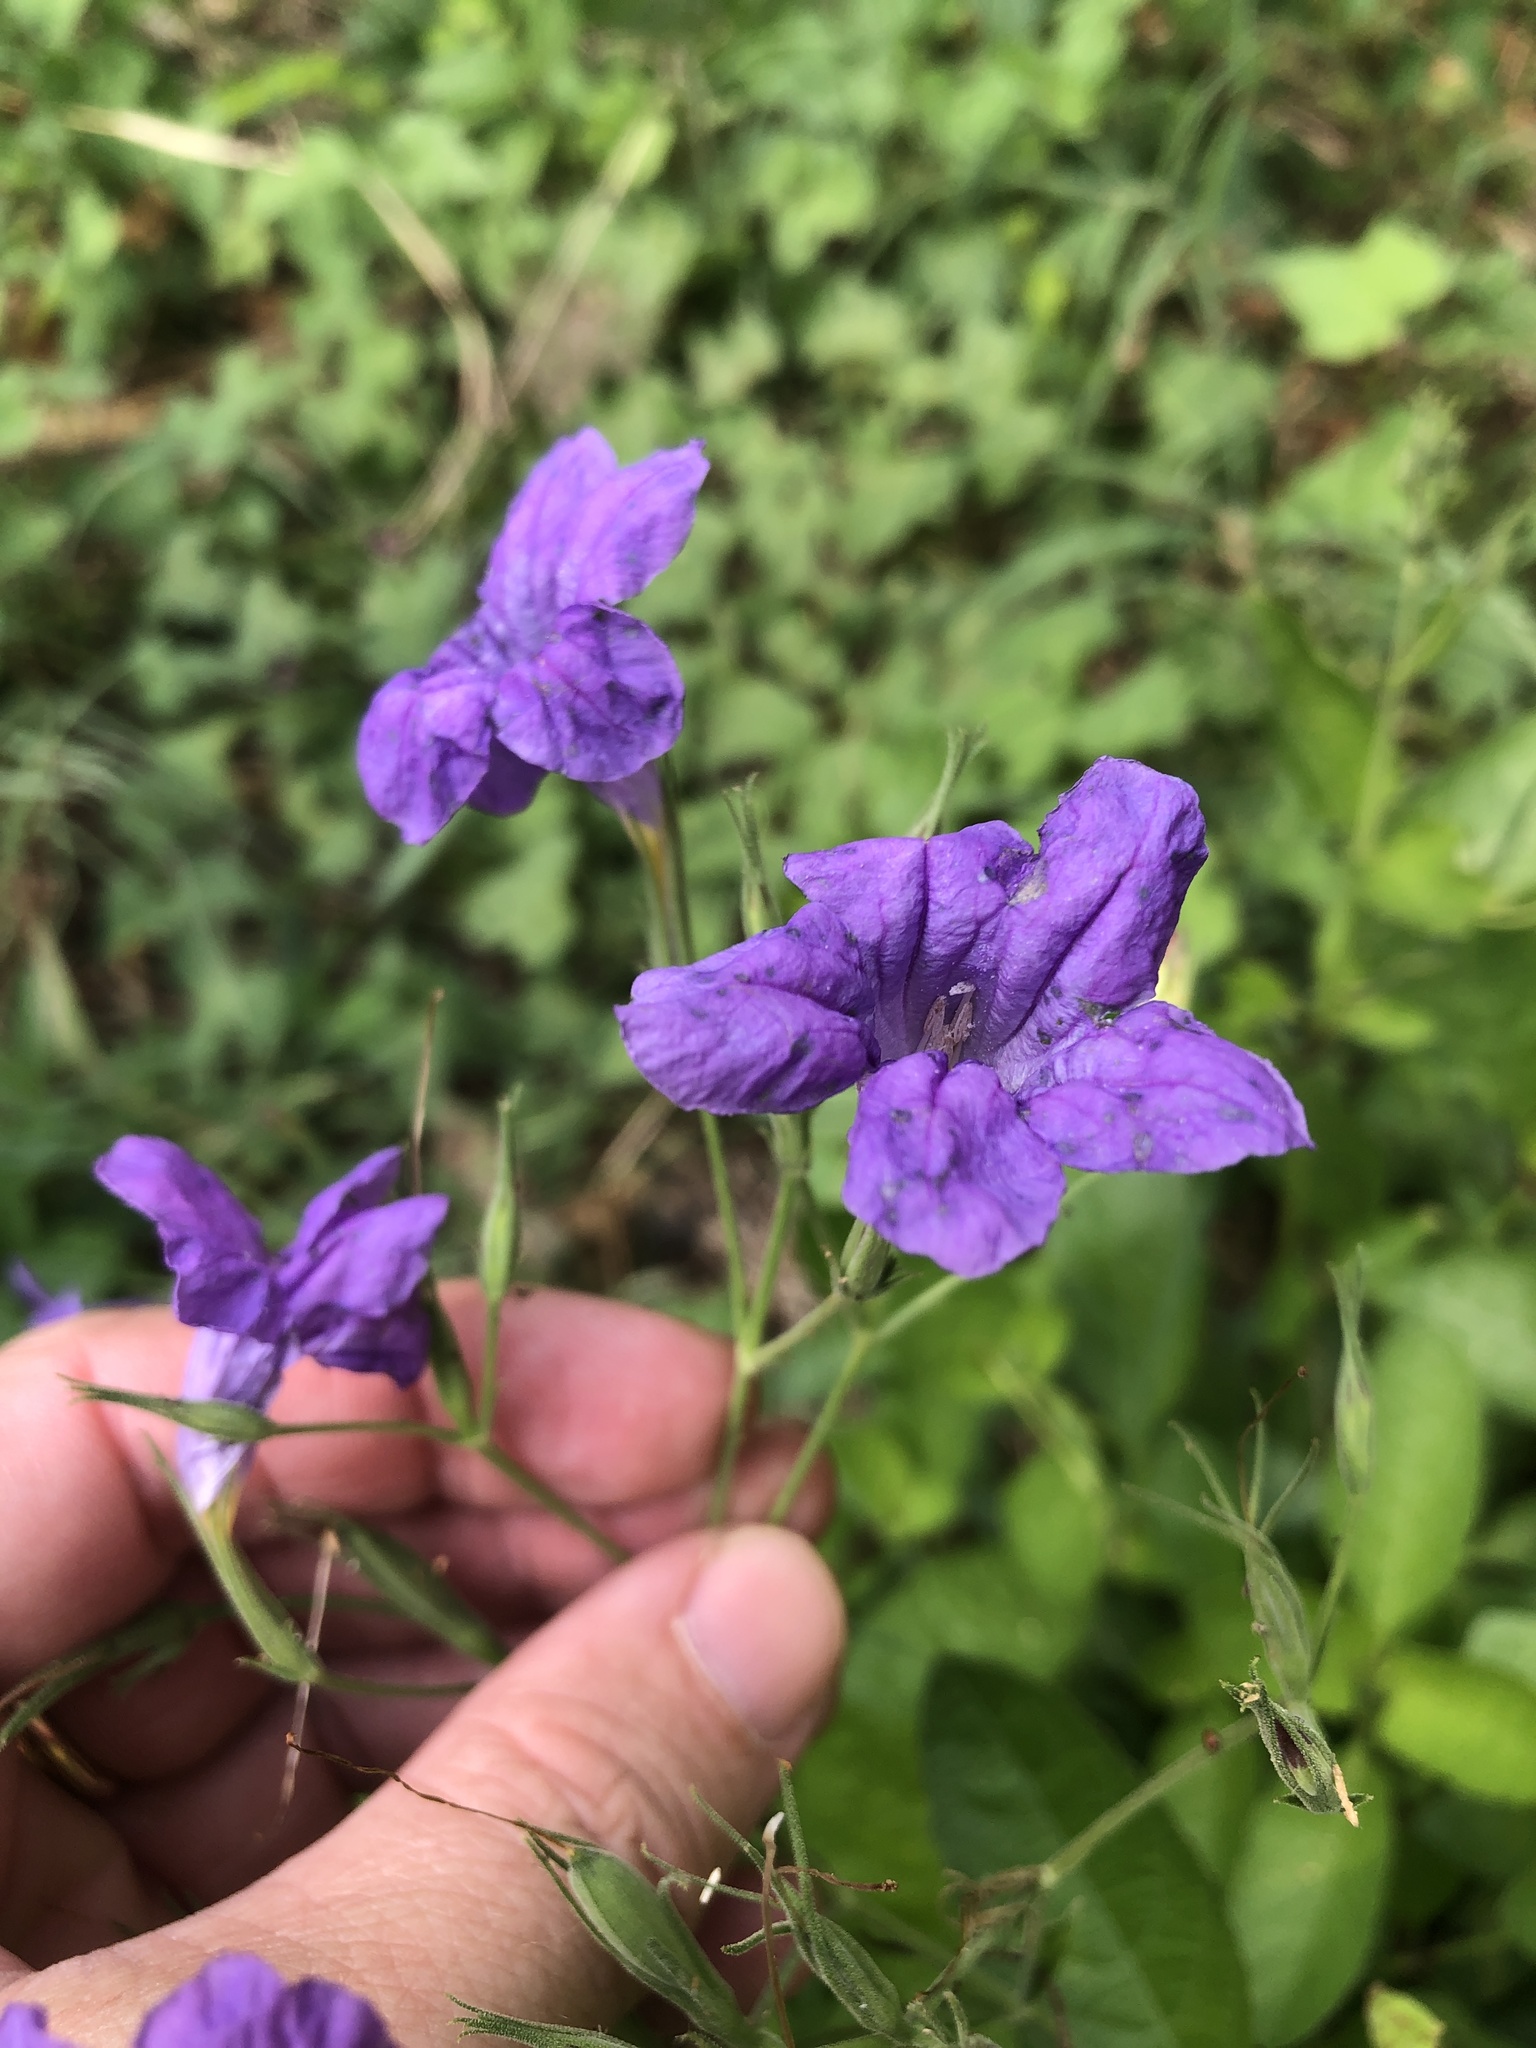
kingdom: Plantae
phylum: Tracheophyta
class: Magnoliopsida
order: Lamiales
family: Acanthaceae
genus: Ruellia
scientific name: Ruellia ciliatiflora
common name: Hairyflower wild petunia
